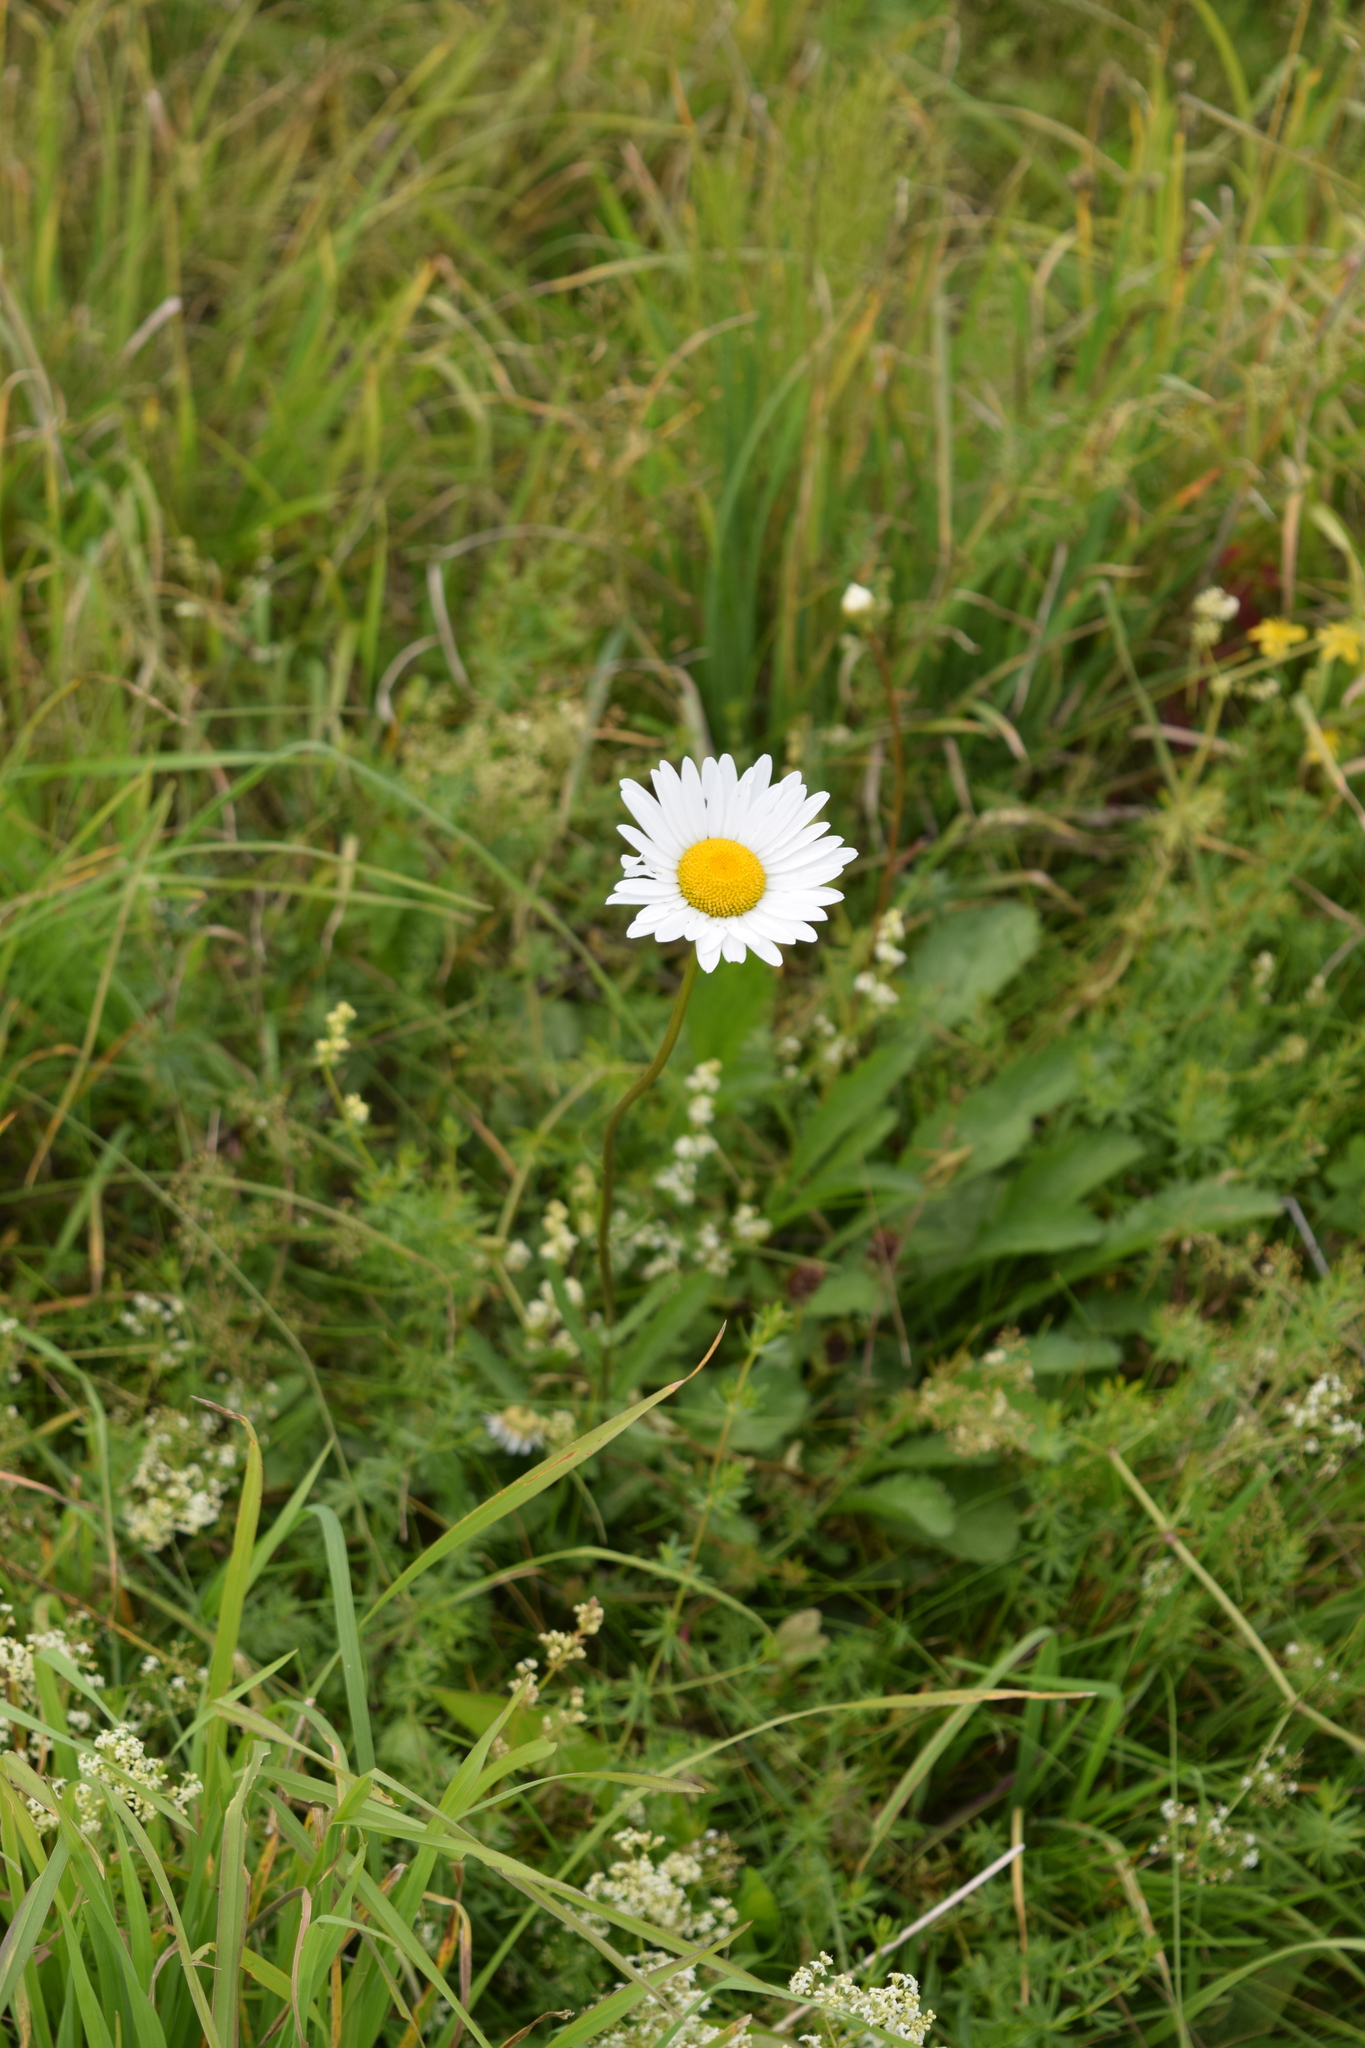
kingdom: Plantae
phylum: Tracheophyta
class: Magnoliopsida
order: Asterales
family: Asteraceae
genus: Leucanthemum
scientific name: Leucanthemum vulgare
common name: Oxeye daisy
